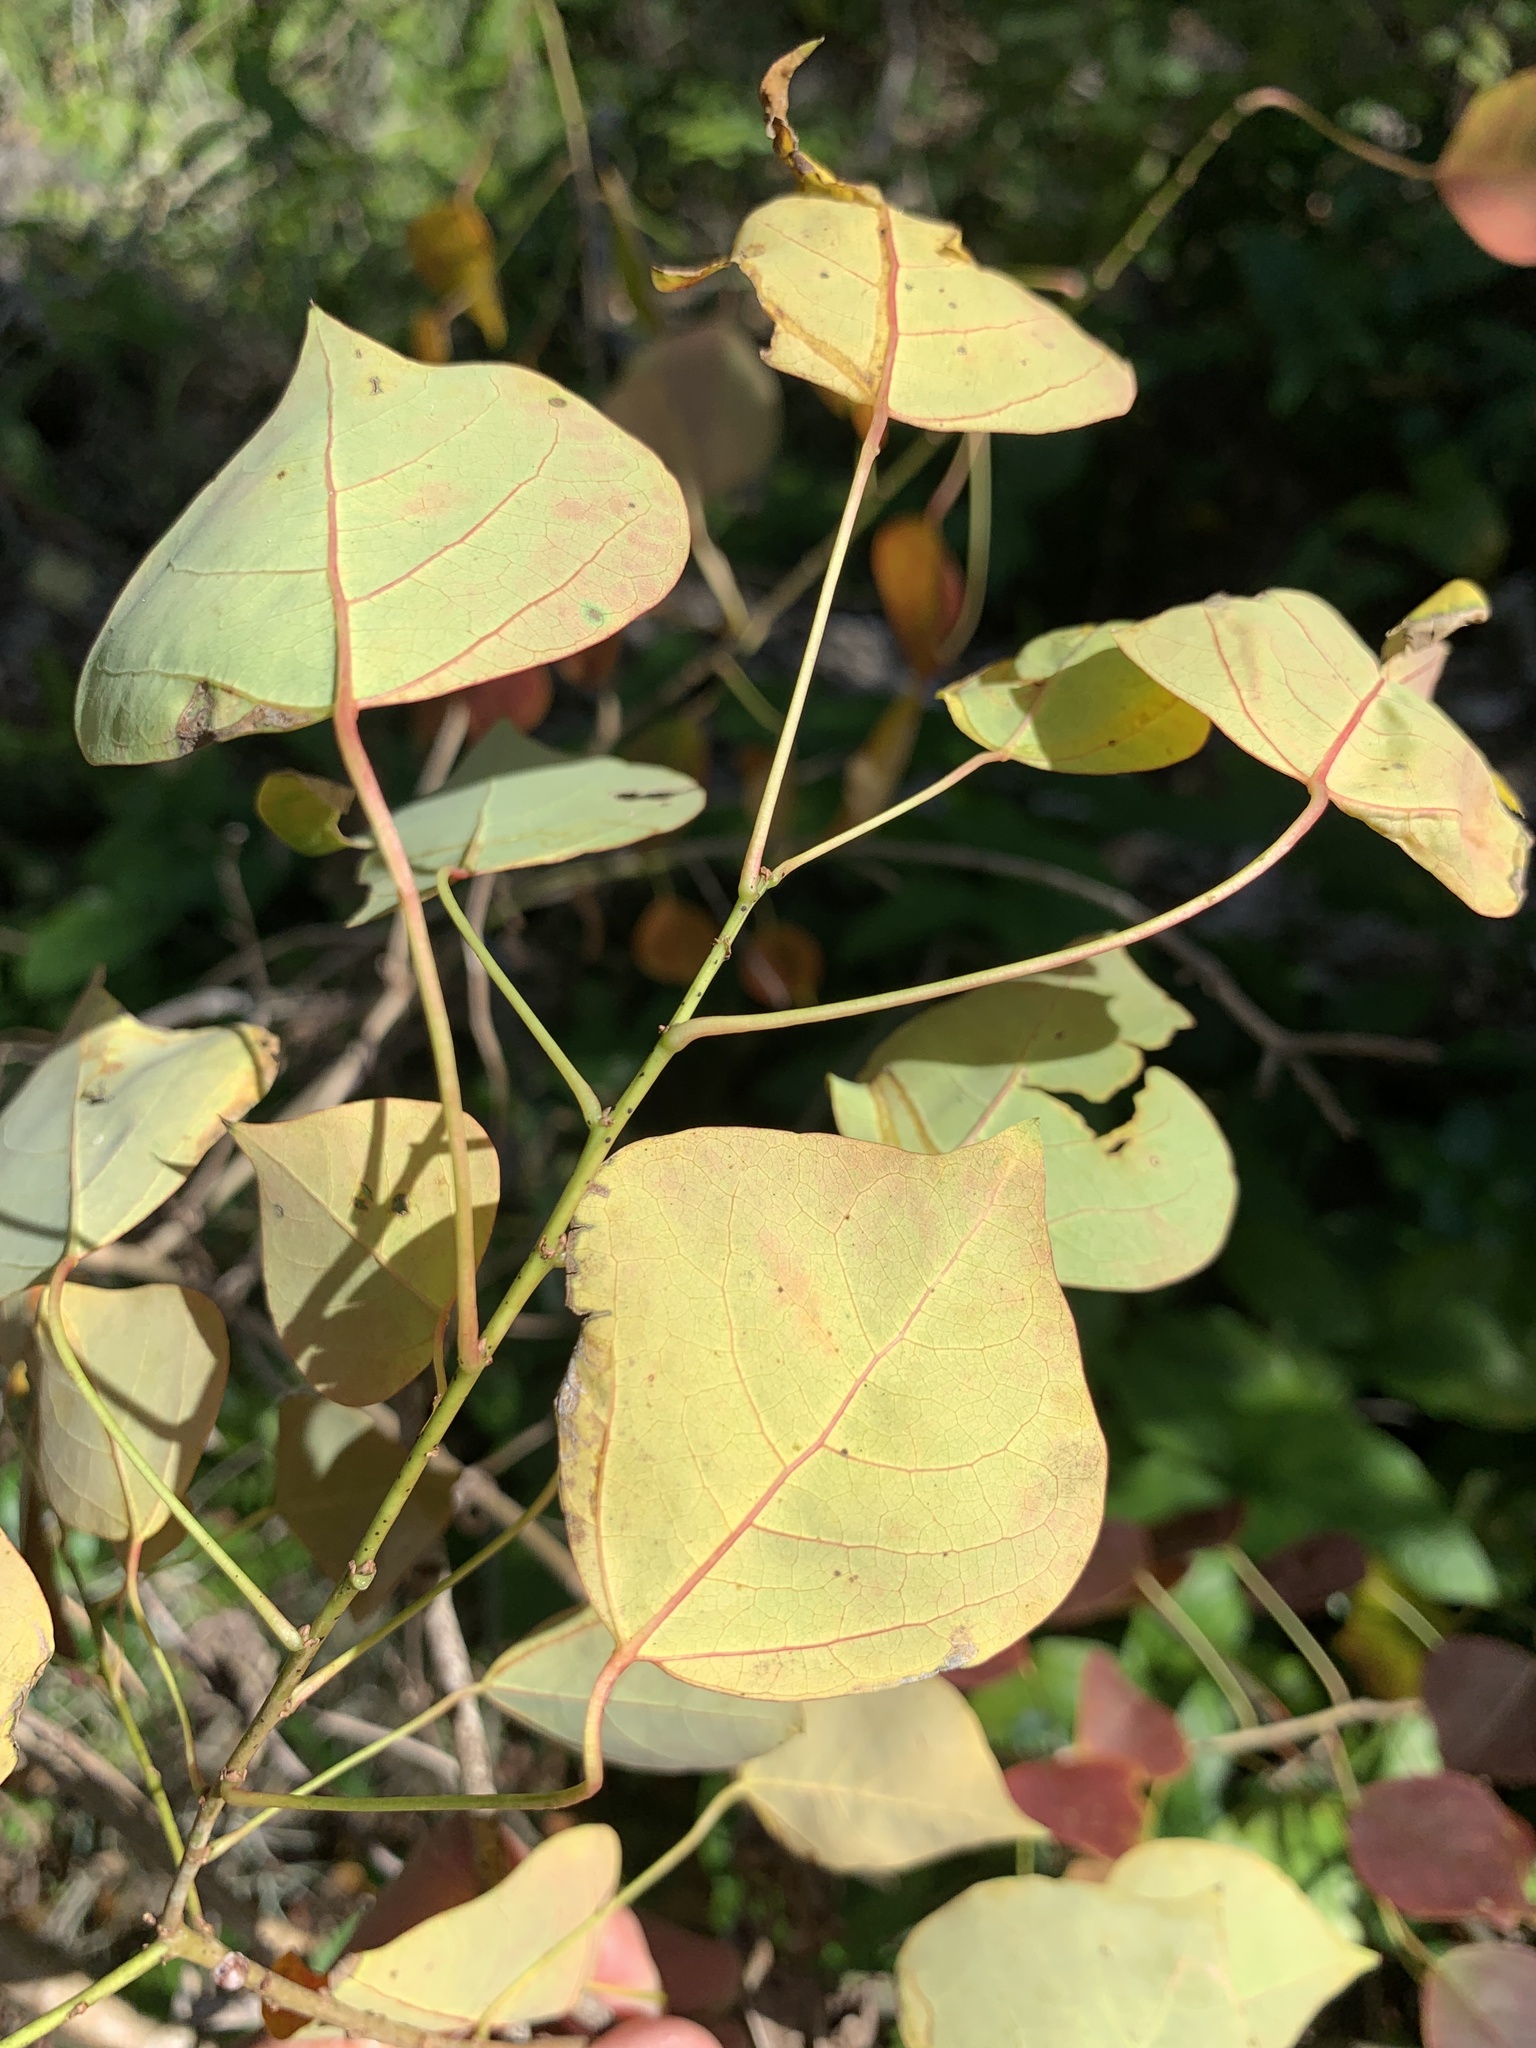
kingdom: Plantae
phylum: Tracheophyta
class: Magnoliopsida
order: Malpighiales
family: Euphorbiaceae
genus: Triadica
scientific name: Triadica sebifera
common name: Chinese tallow
